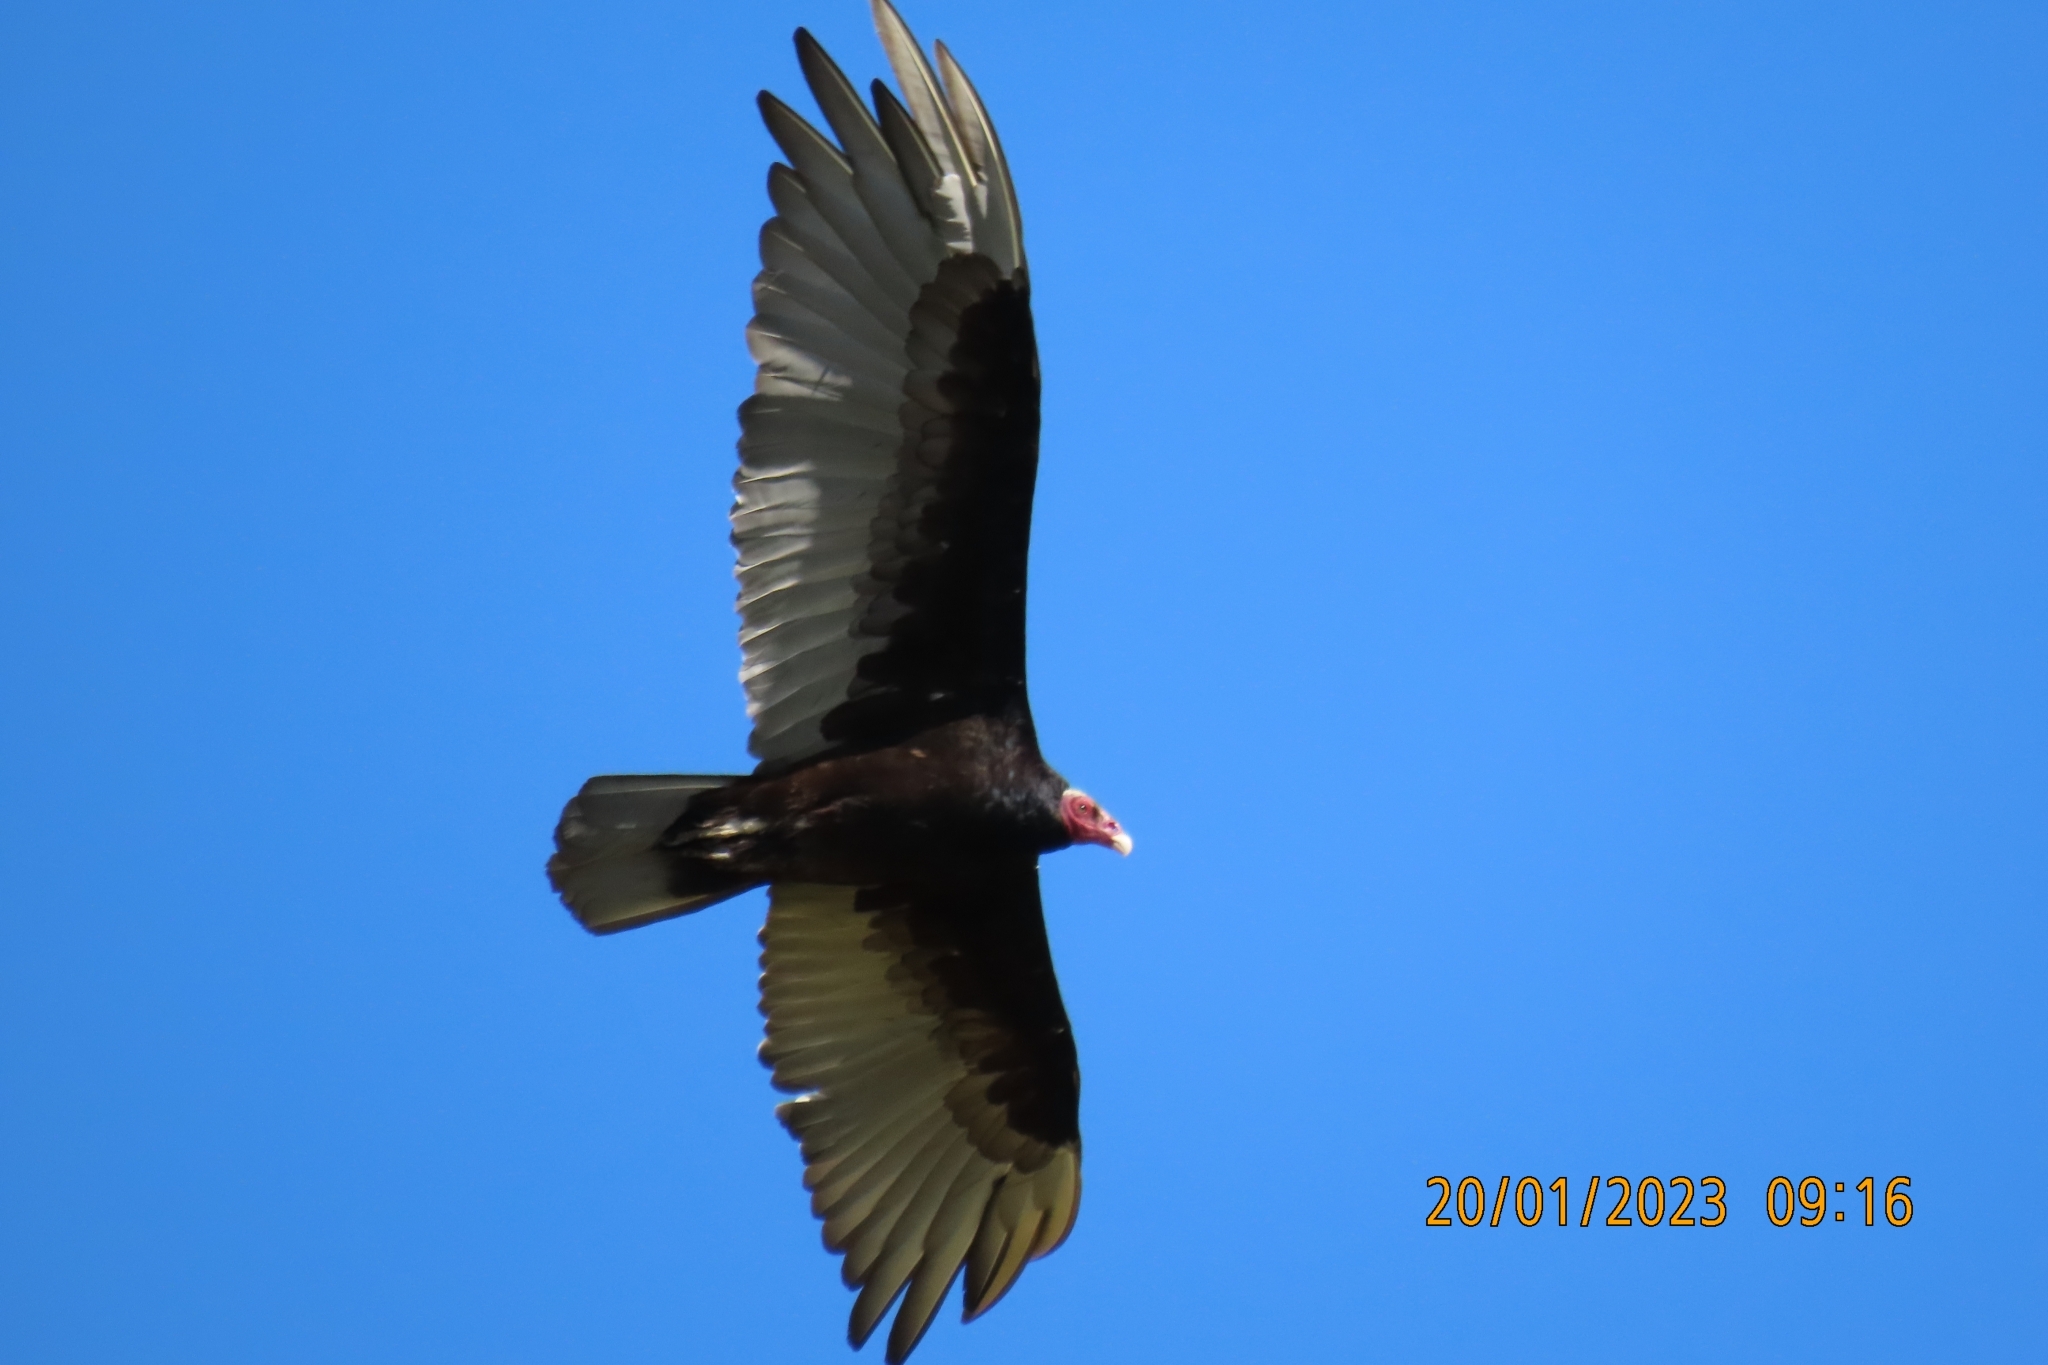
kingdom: Animalia
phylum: Chordata
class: Aves
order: Accipitriformes
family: Cathartidae
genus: Cathartes
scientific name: Cathartes aura
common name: Turkey vulture
